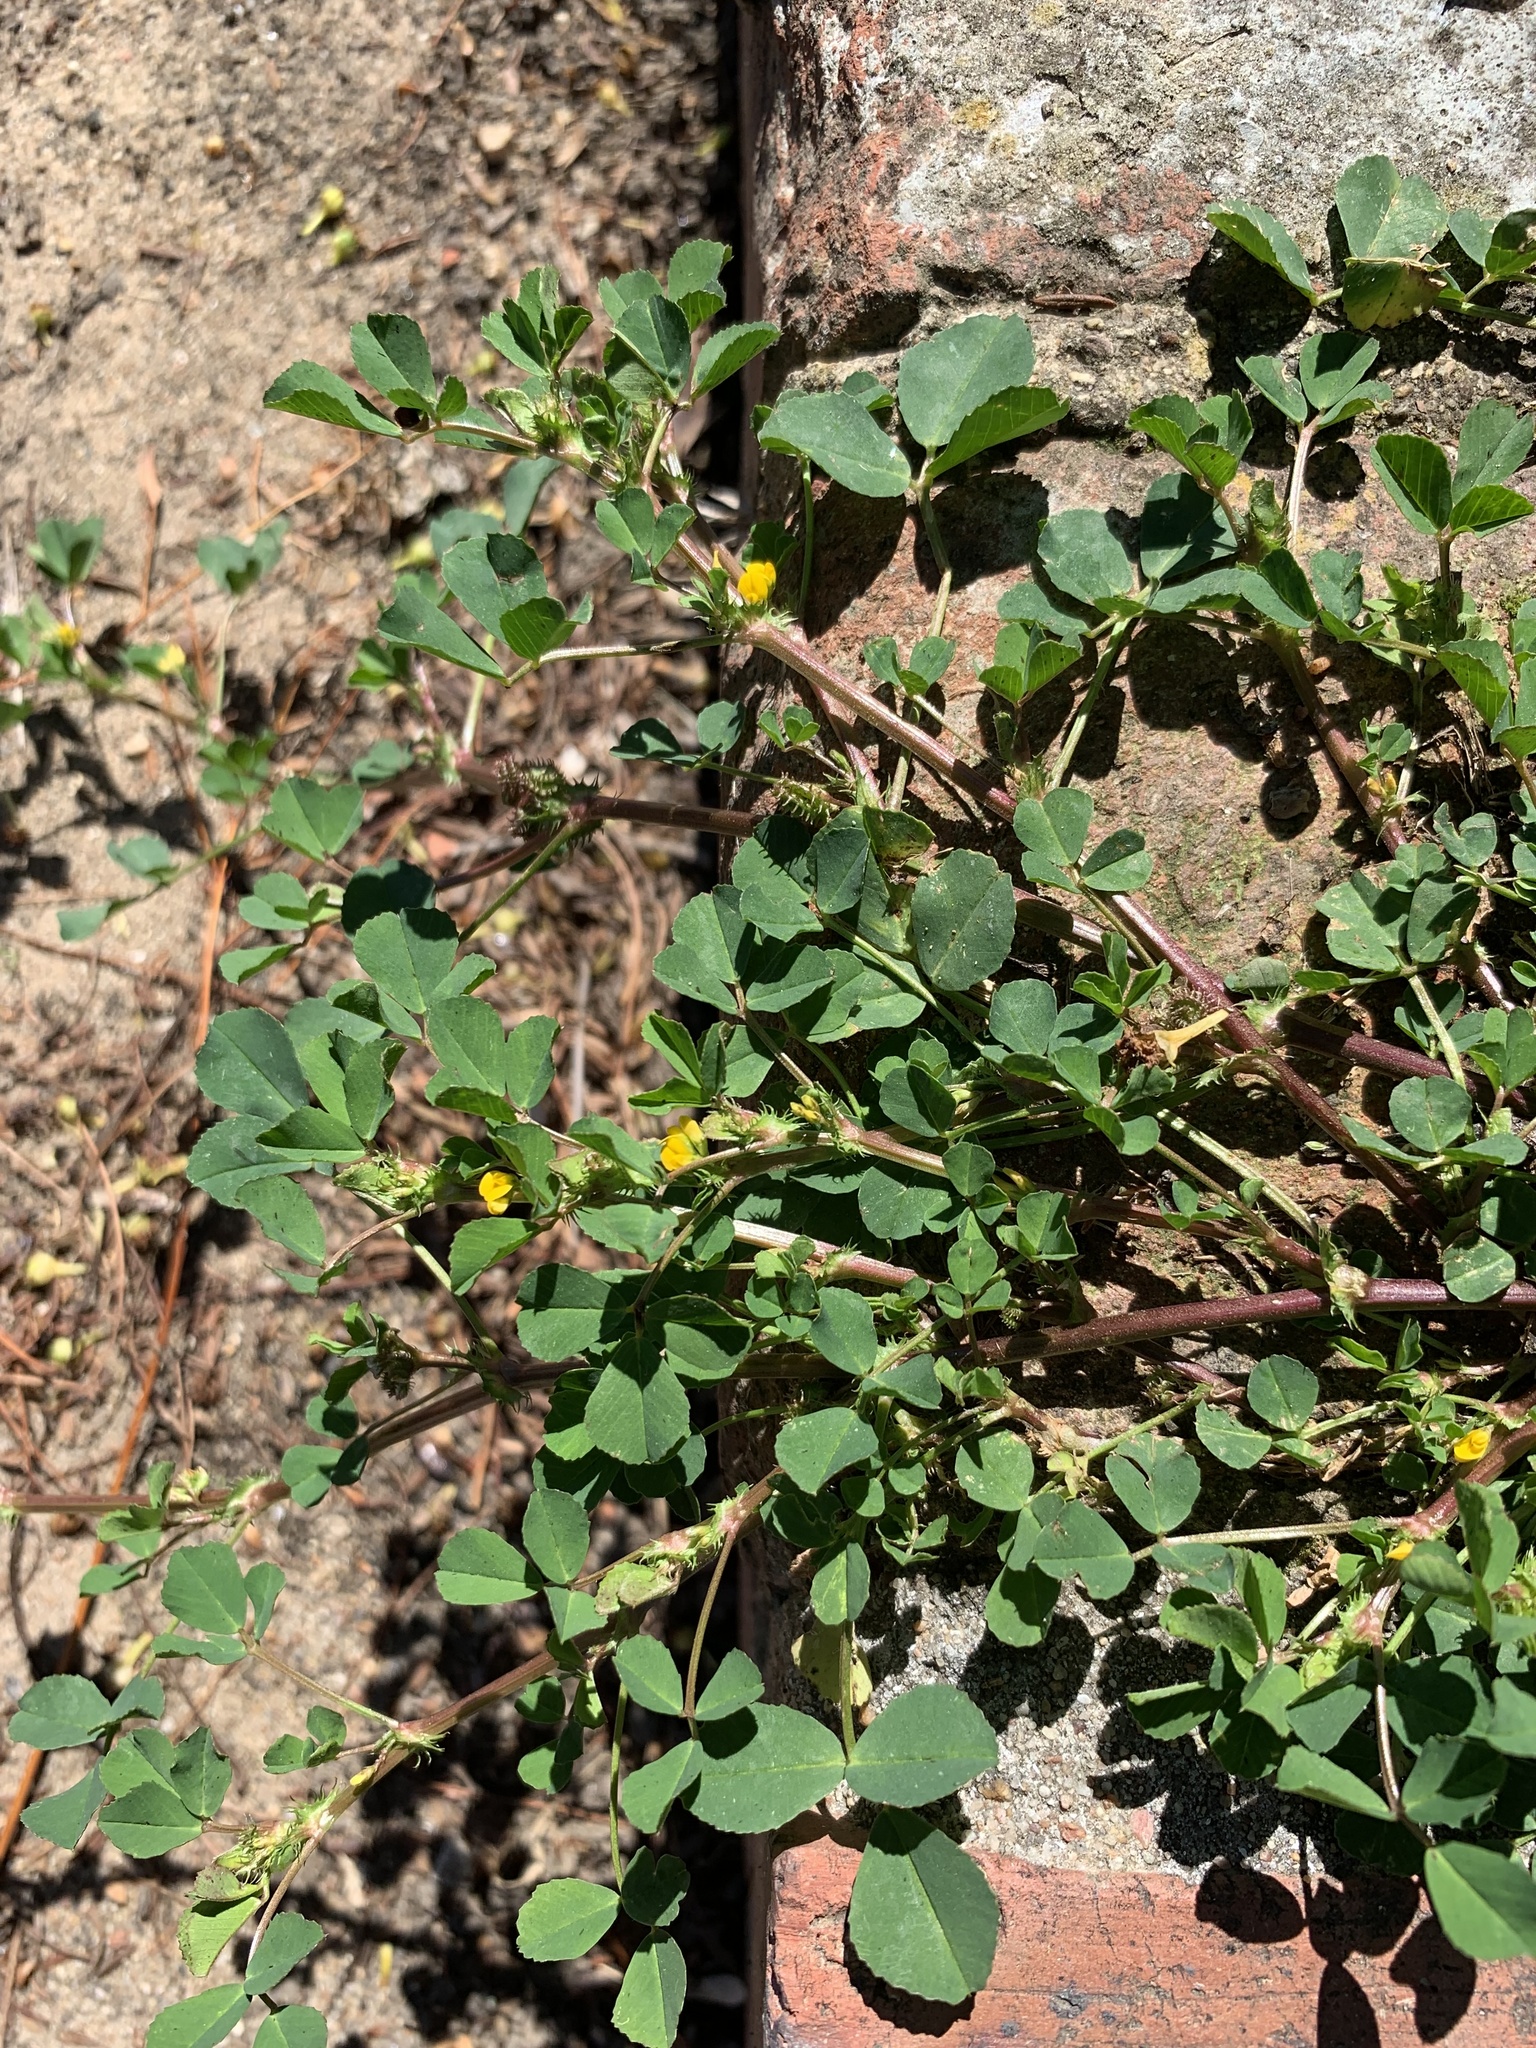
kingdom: Plantae
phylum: Tracheophyta
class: Magnoliopsida
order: Fabales
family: Fabaceae
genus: Medicago
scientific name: Medicago polymorpha
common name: Burclover
